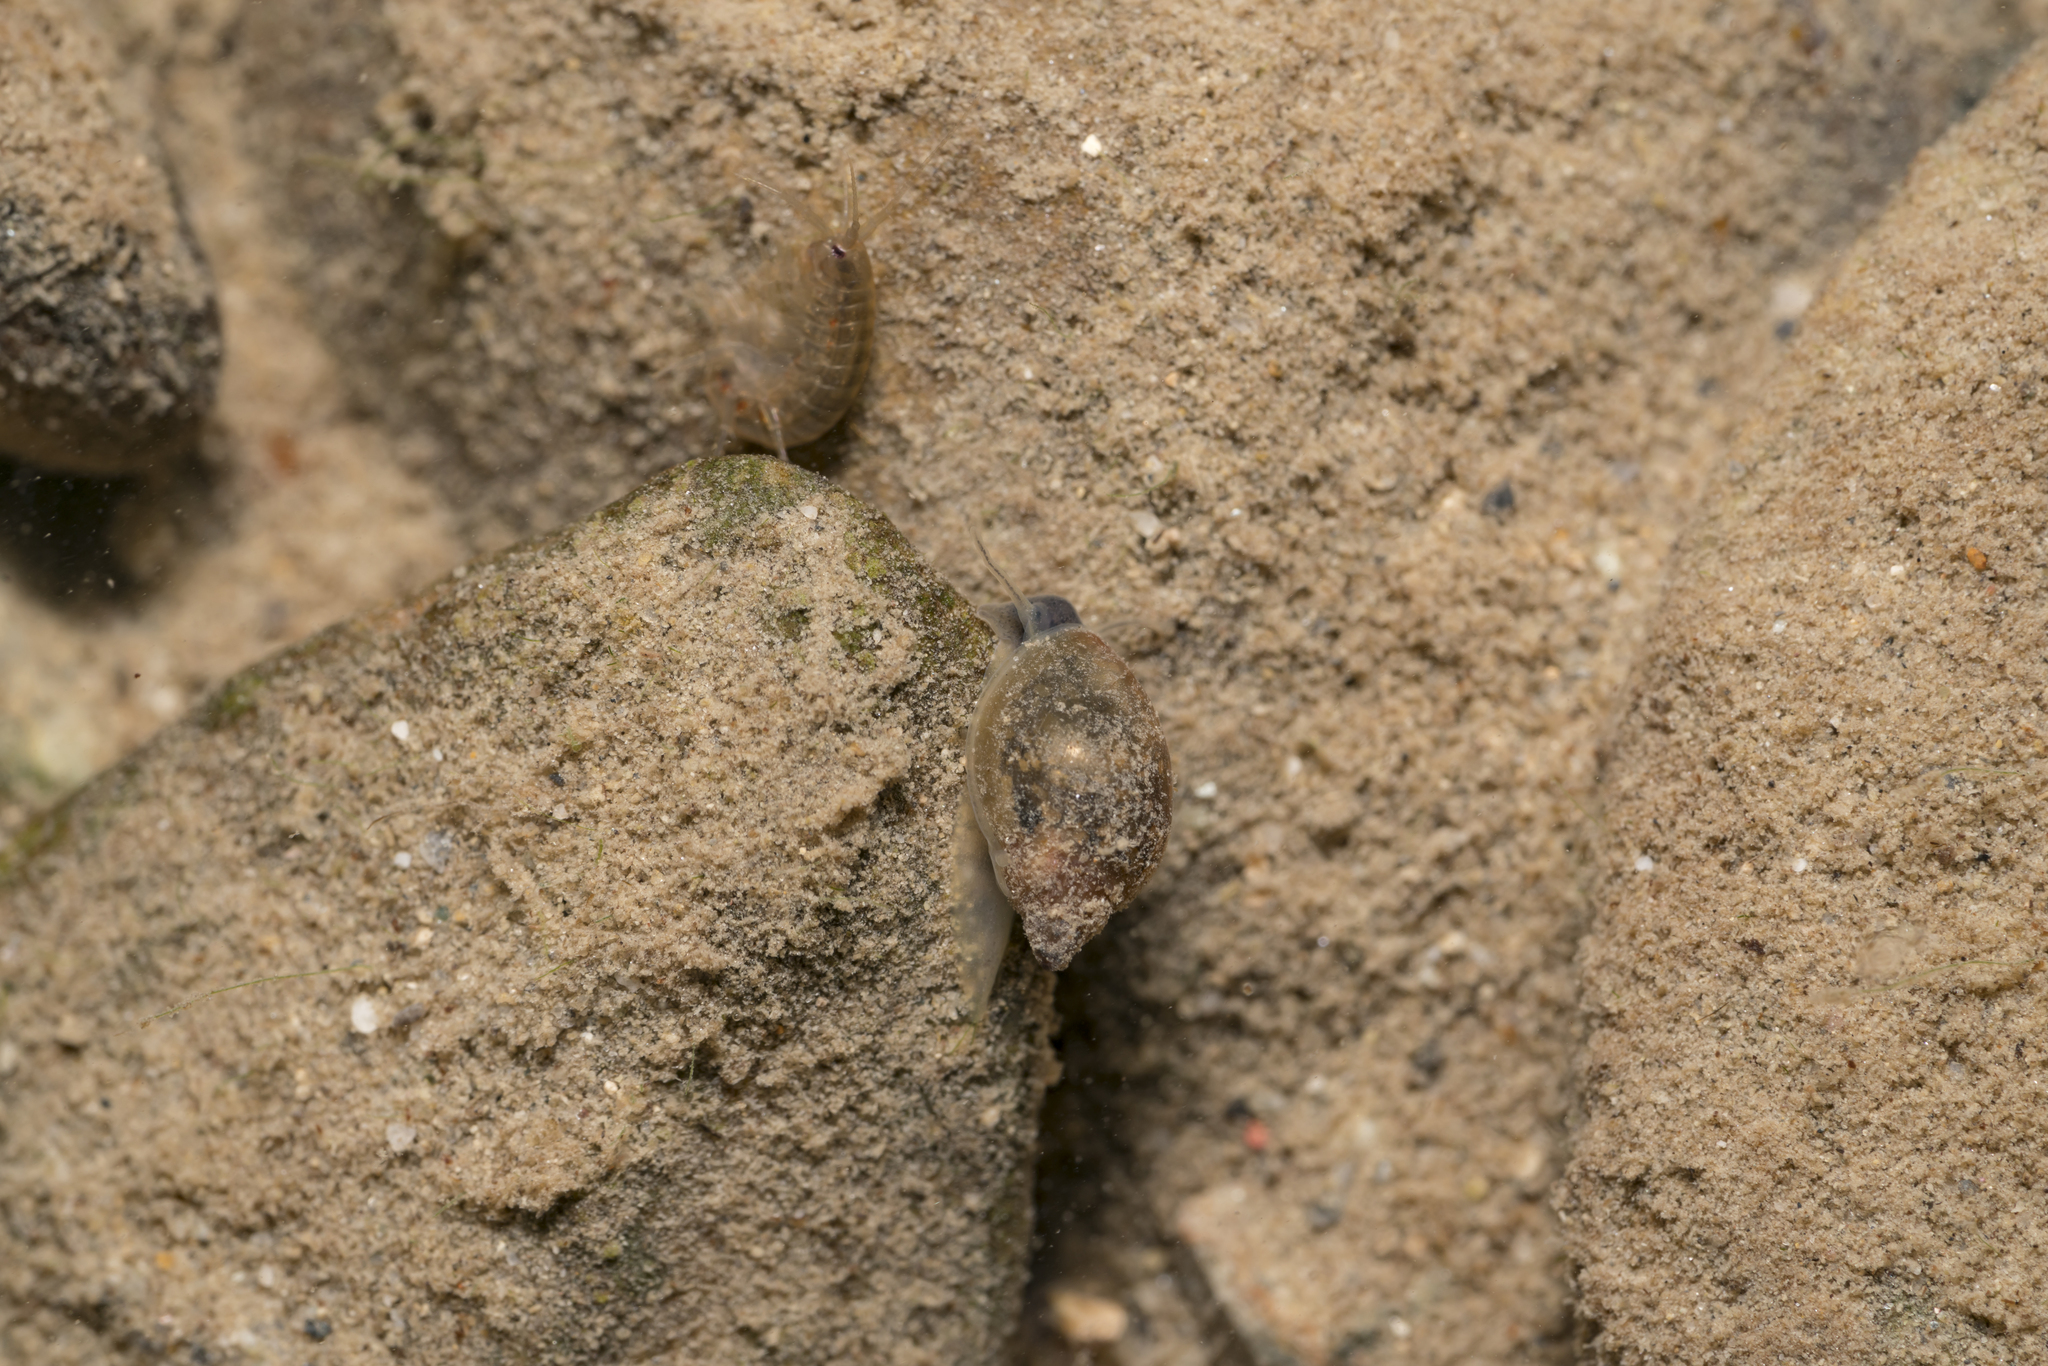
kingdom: Animalia
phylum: Mollusca
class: Gastropoda
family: Physidae
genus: Physella
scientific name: Physella acuta
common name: European physa
